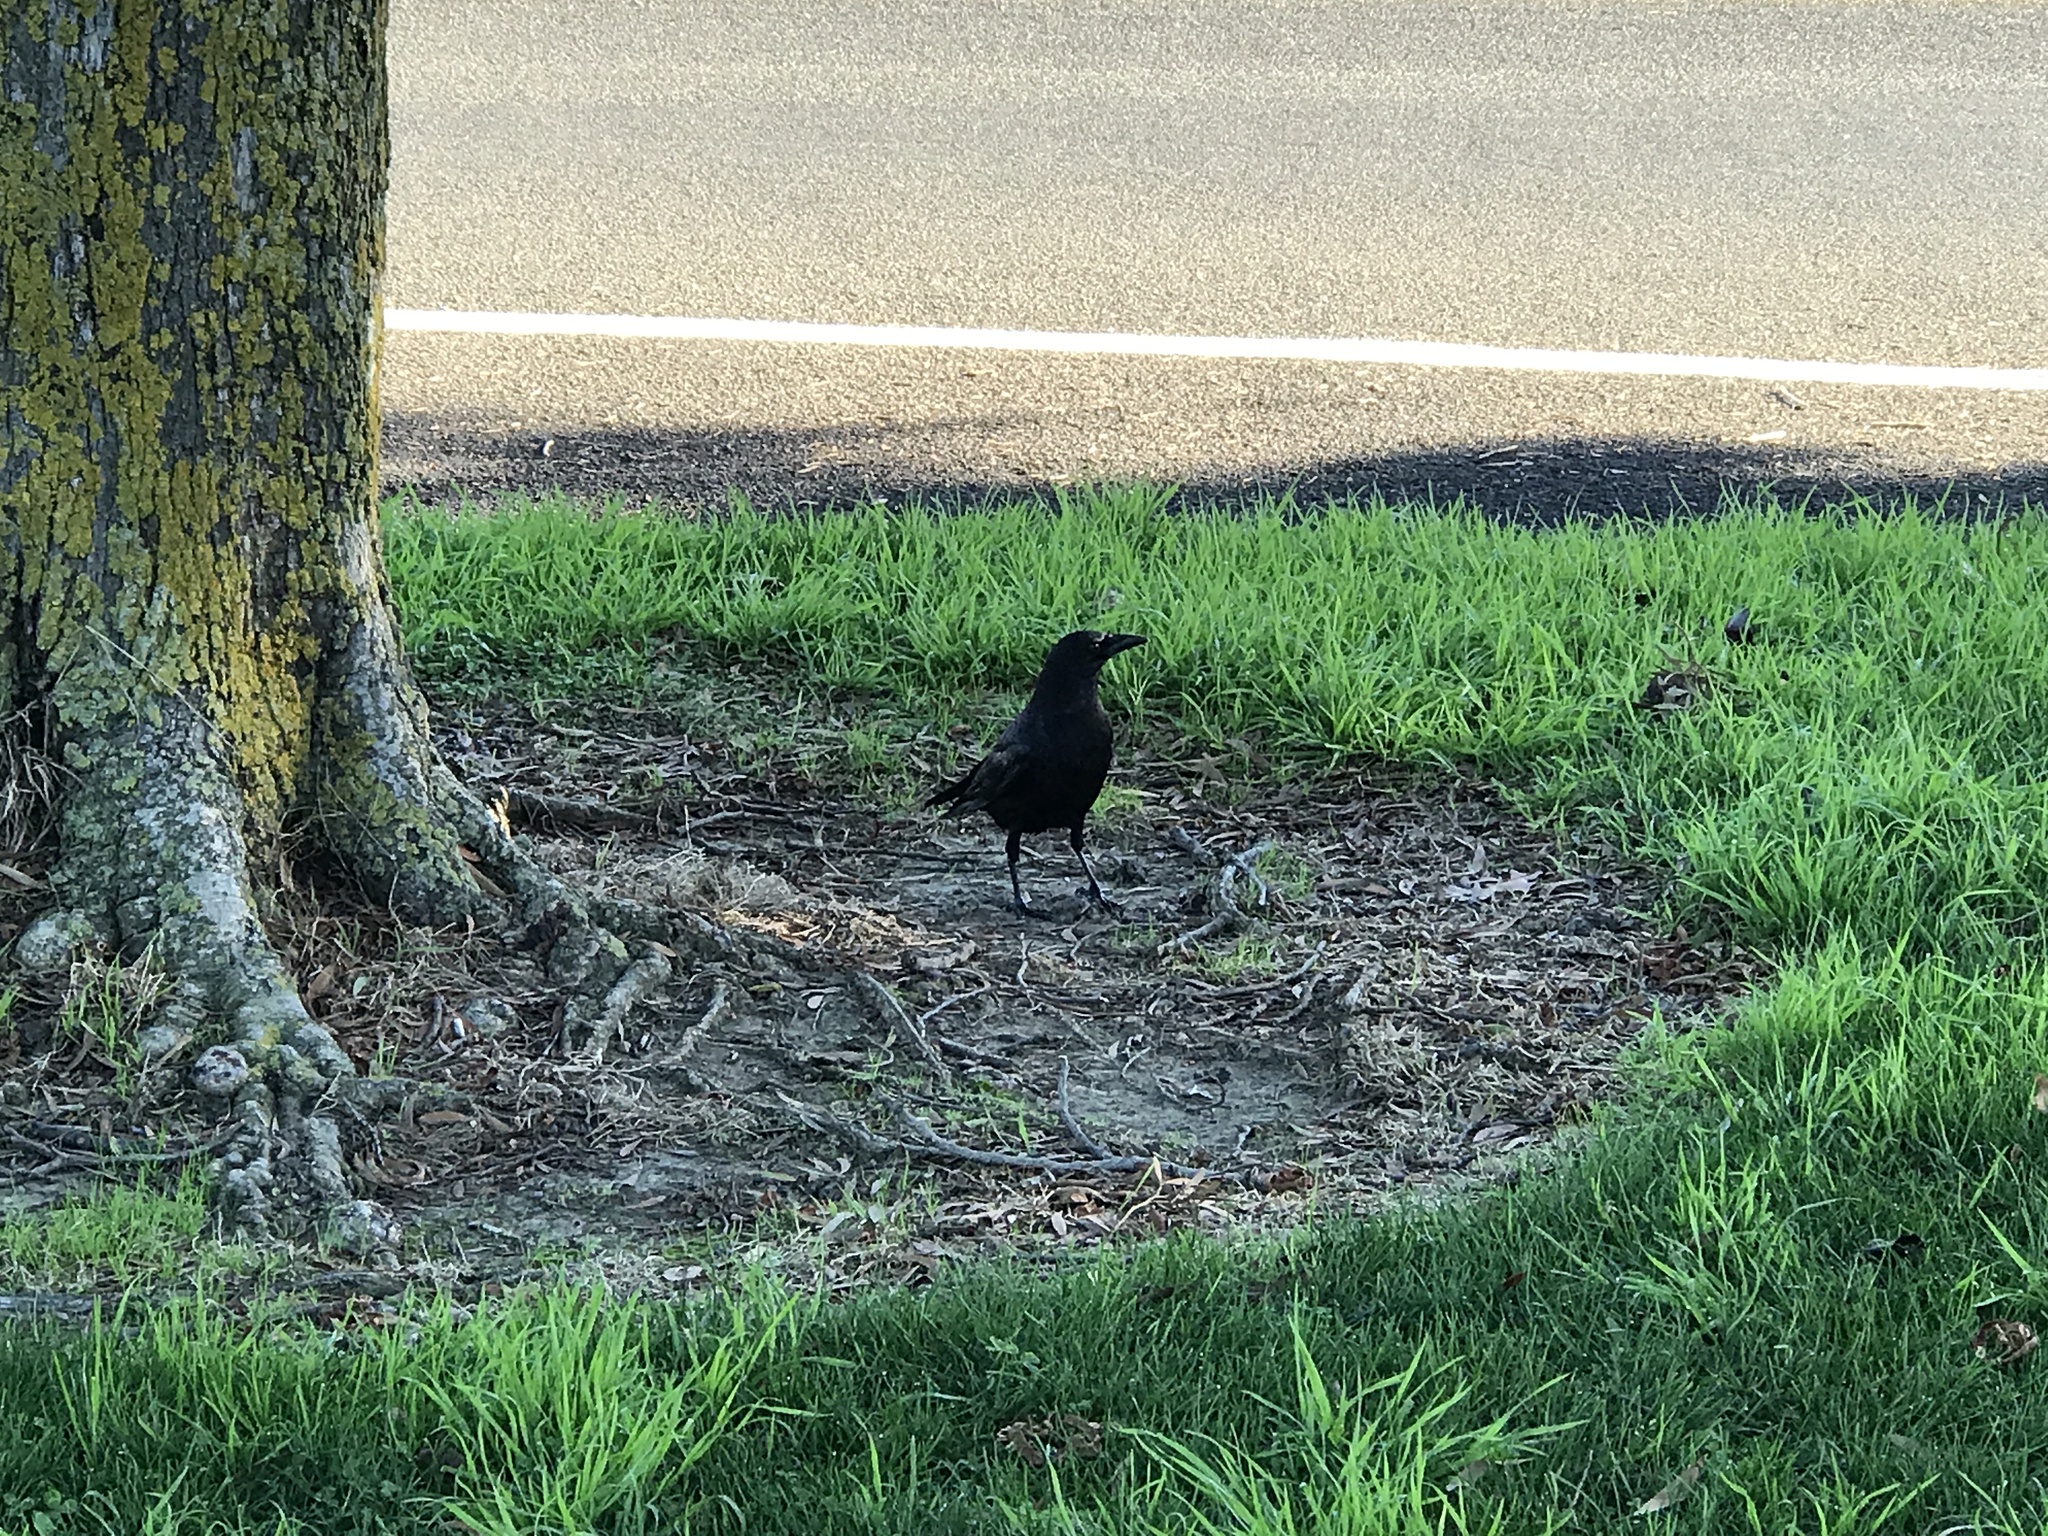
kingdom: Animalia
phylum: Chordata
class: Aves
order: Passeriformes
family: Corvidae
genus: Corvus
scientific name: Corvus brachyrhynchos
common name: American crow
